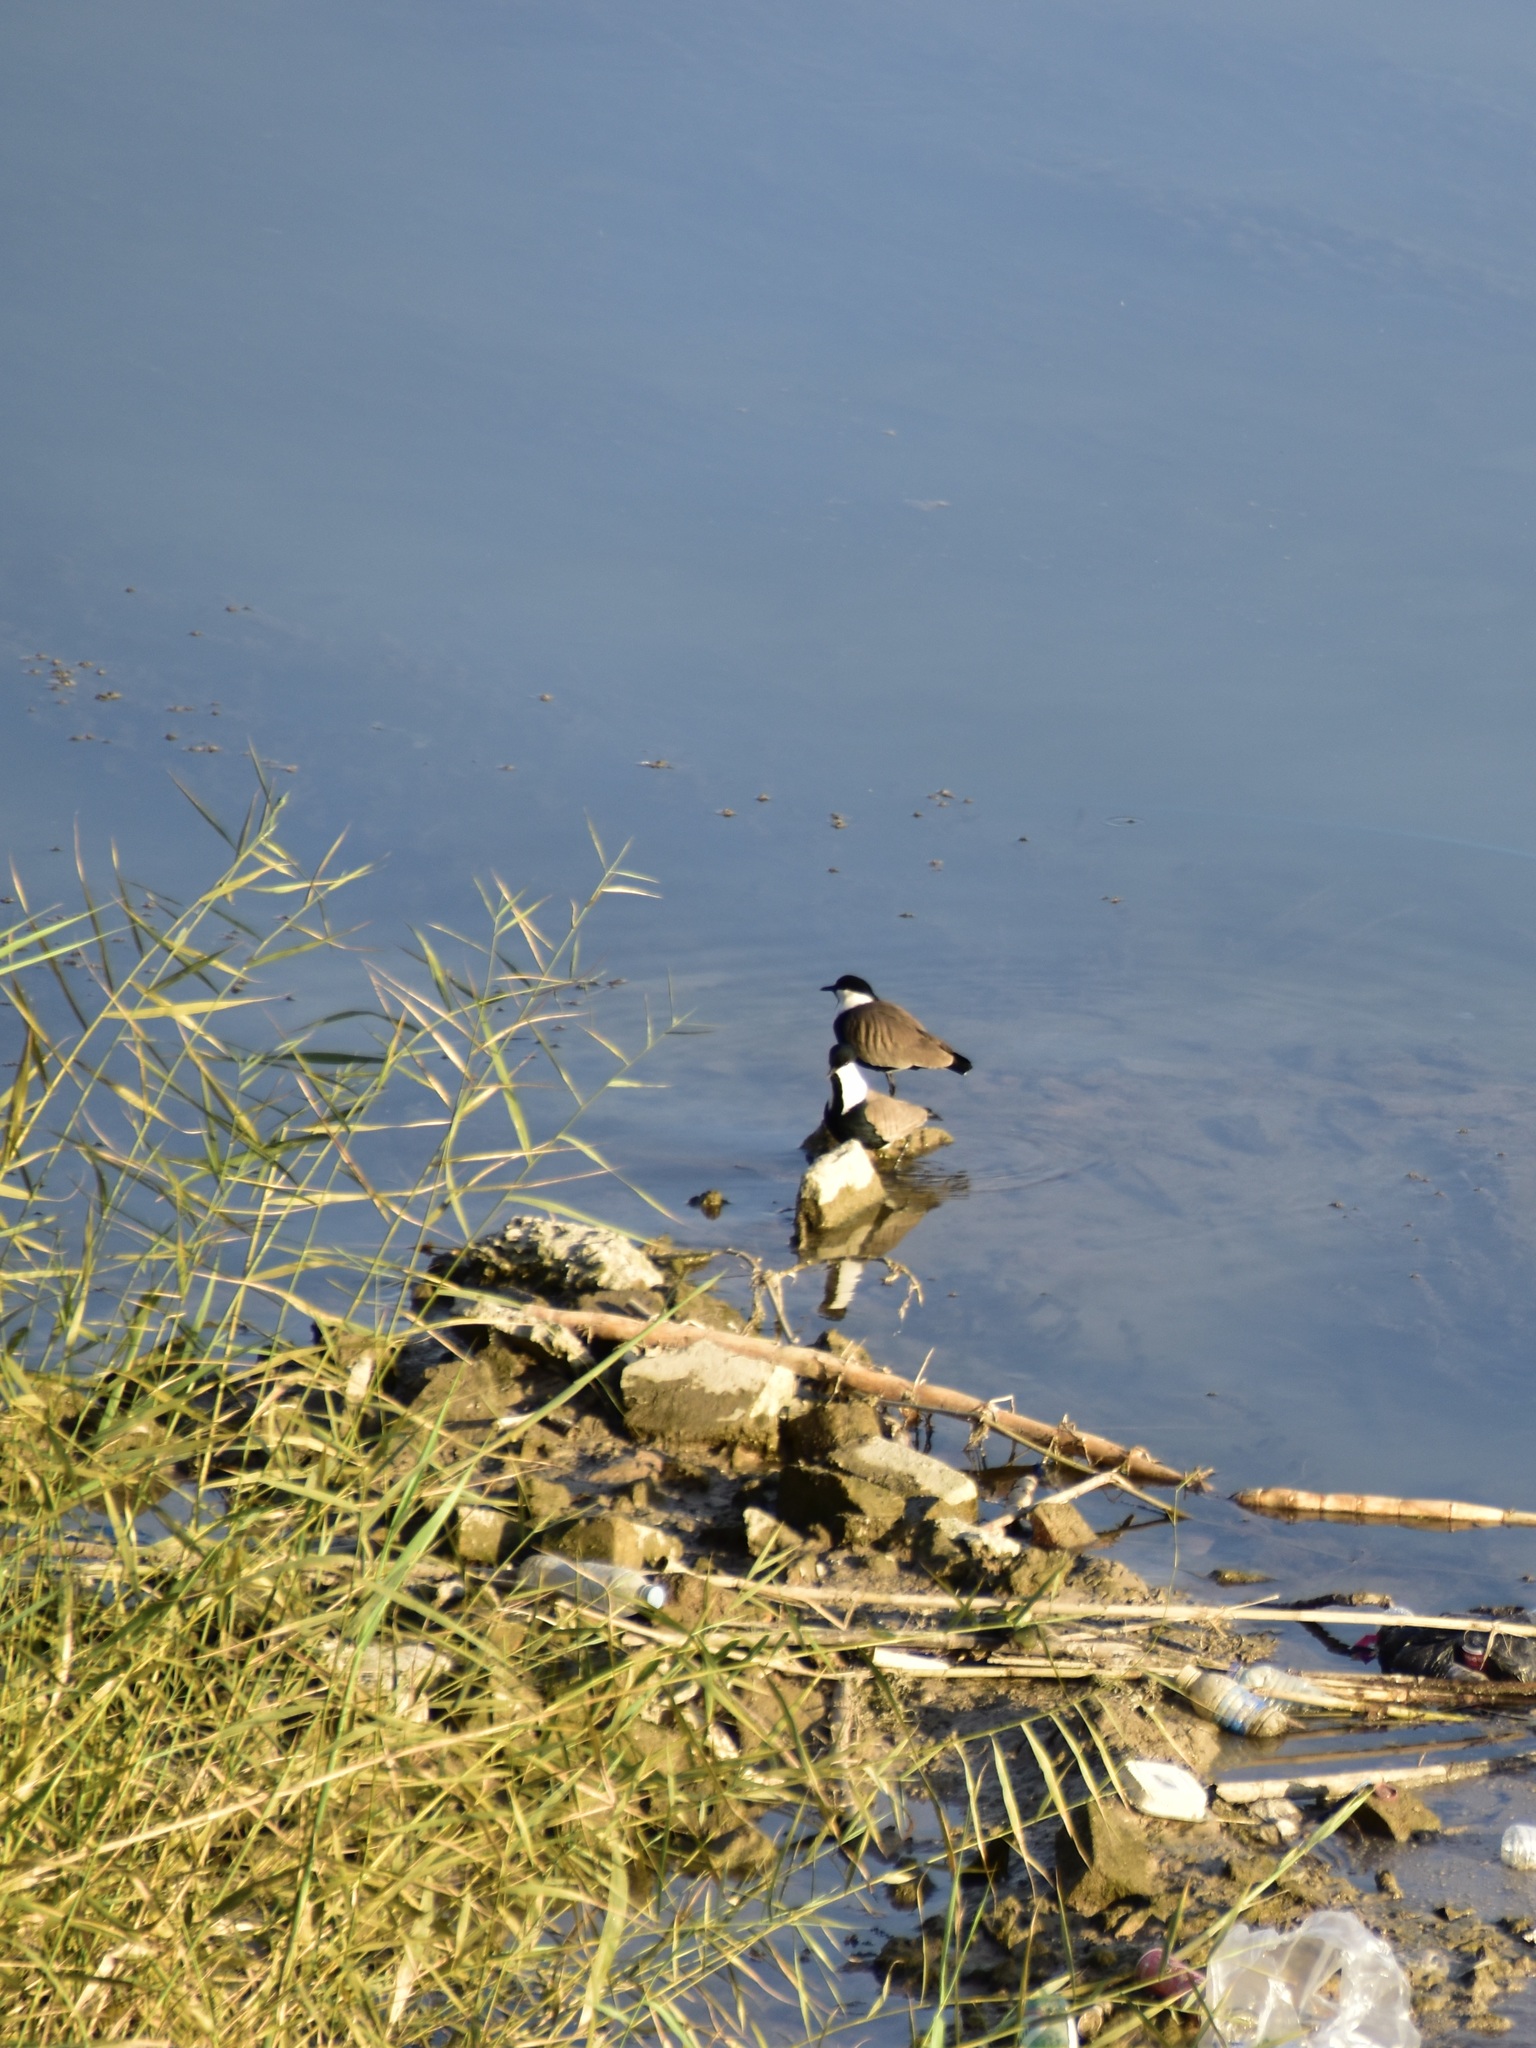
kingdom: Animalia
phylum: Chordata
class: Aves
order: Charadriiformes
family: Charadriidae
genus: Vanellus
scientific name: Vanellus spinosus
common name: Spur-winged lapwing
